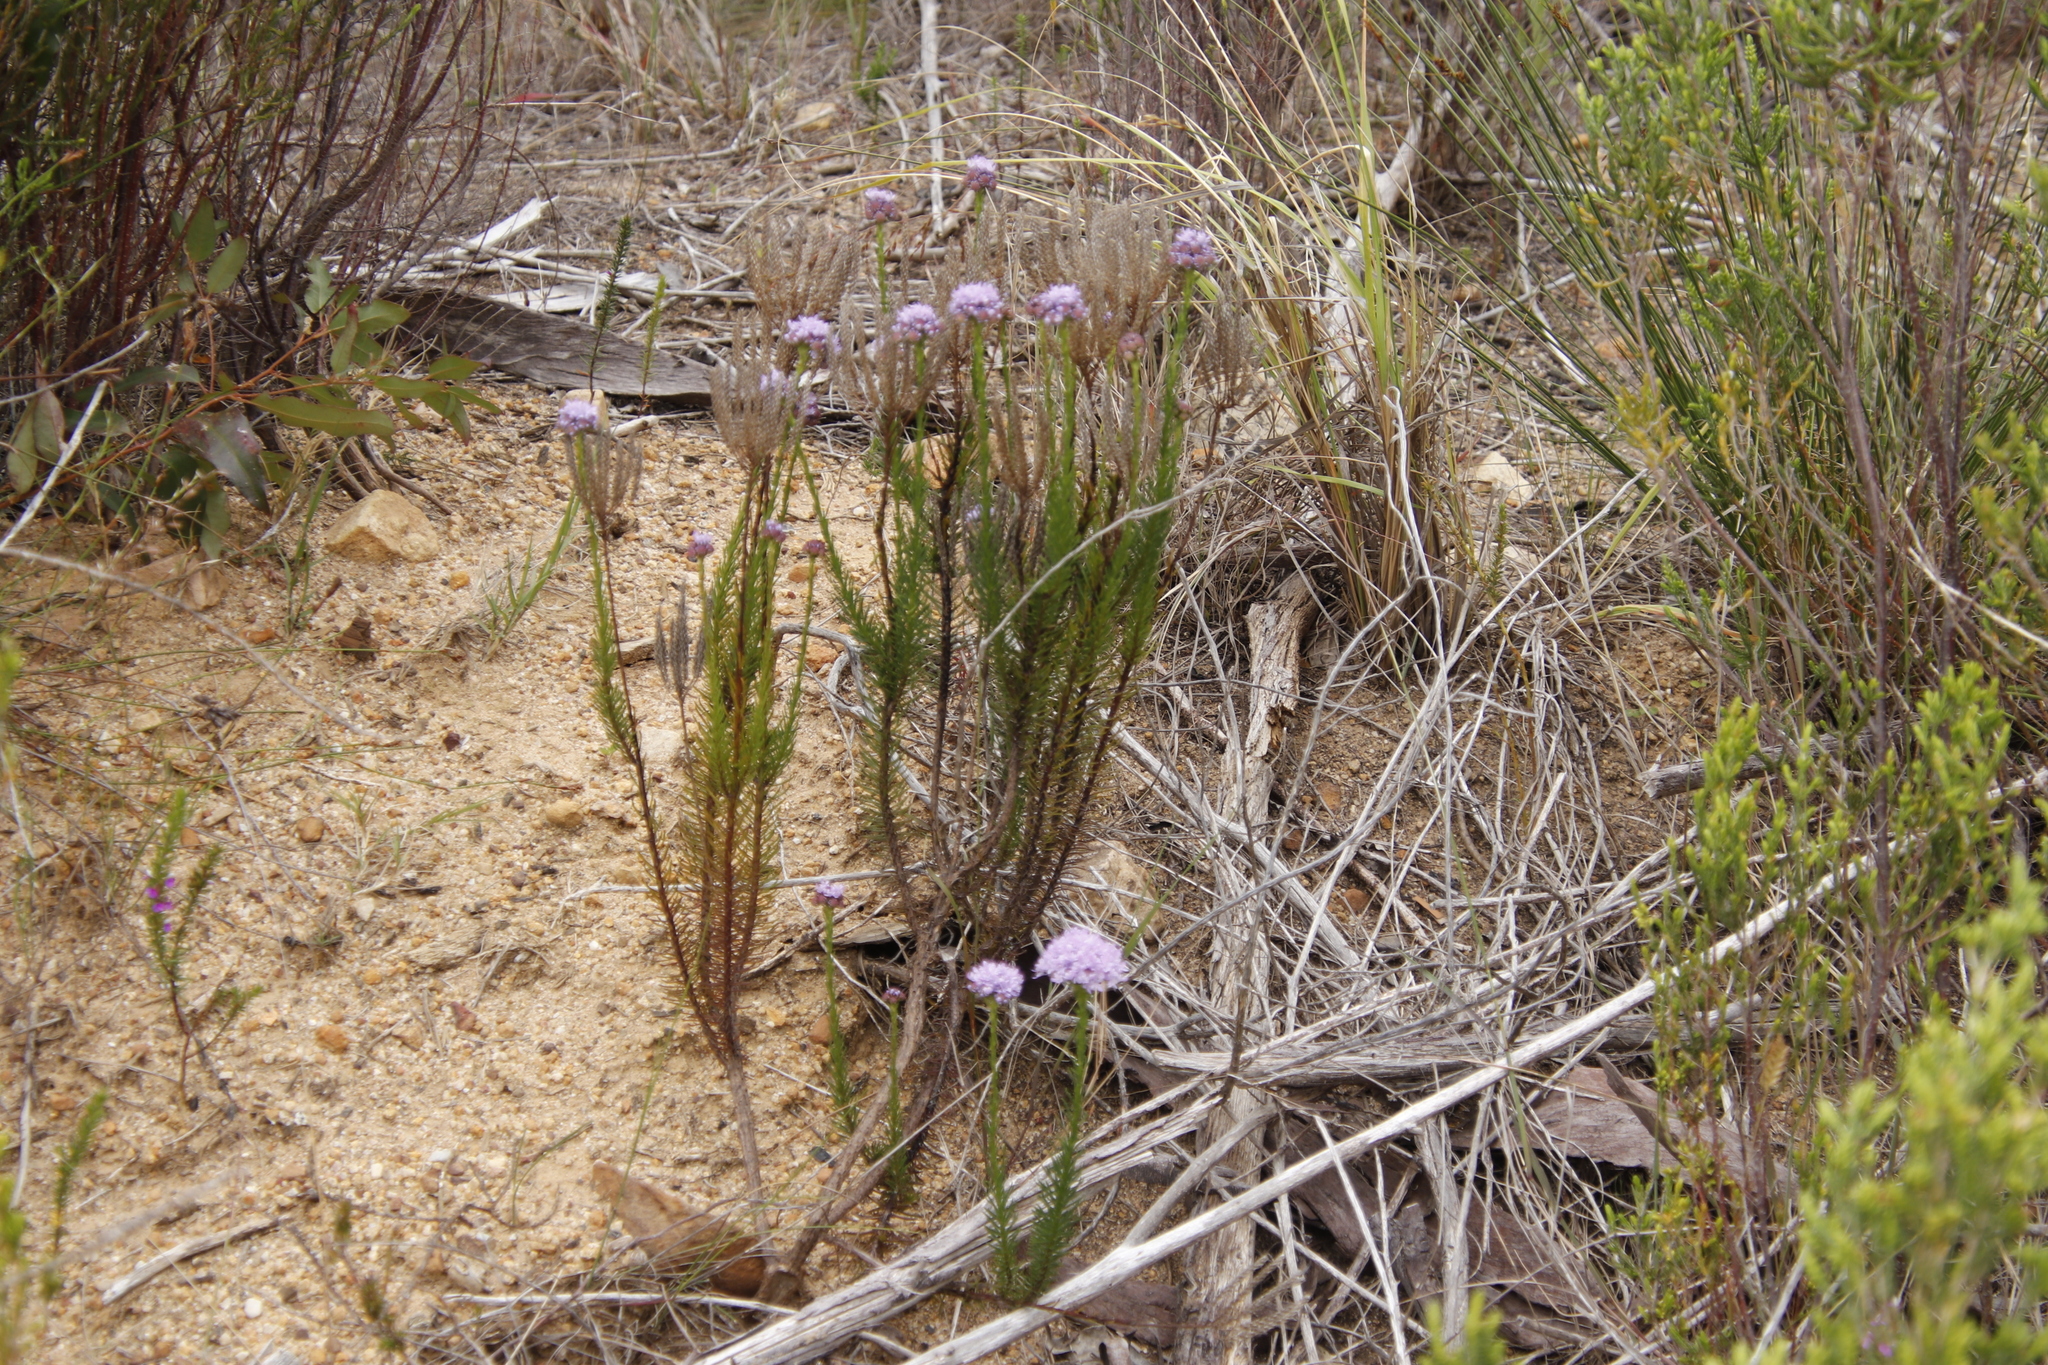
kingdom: Plantae
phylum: Tracheophyta
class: Magnoliopsida
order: Lamiales
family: Scrophulariaceae
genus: Pseudoselago
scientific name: Pseudoselago spuria
